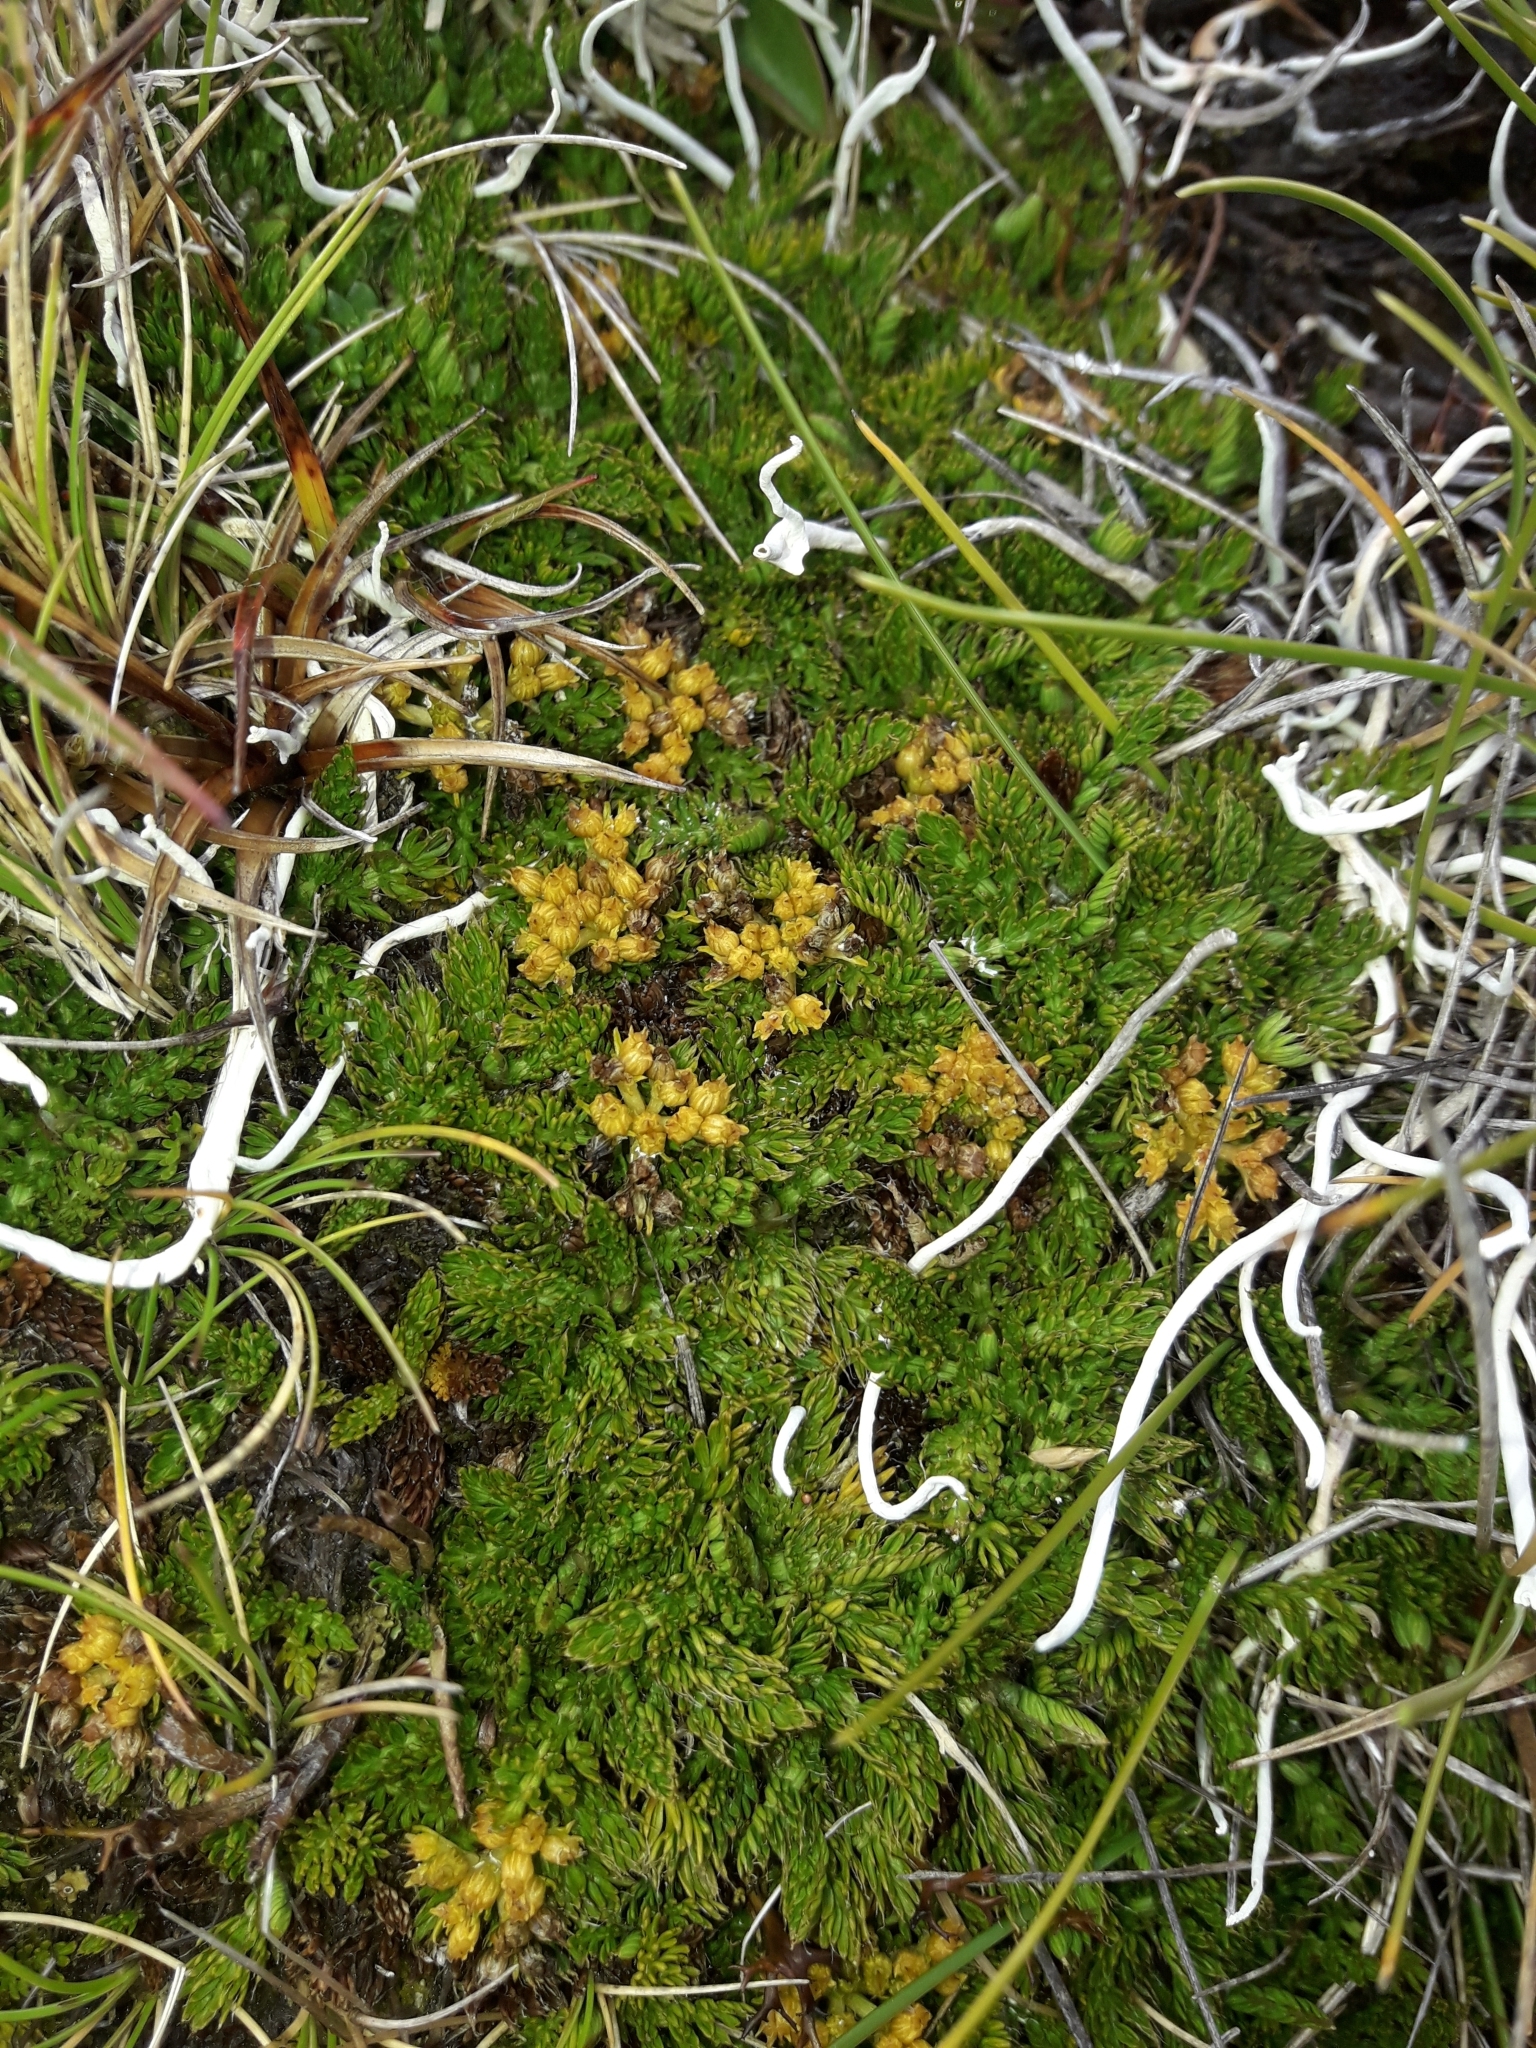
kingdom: Plantae
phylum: Tracheophyta
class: Magnoliopsida
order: Apiales
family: Apiaceae
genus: Anisotome
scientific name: Anisotome imbricata
